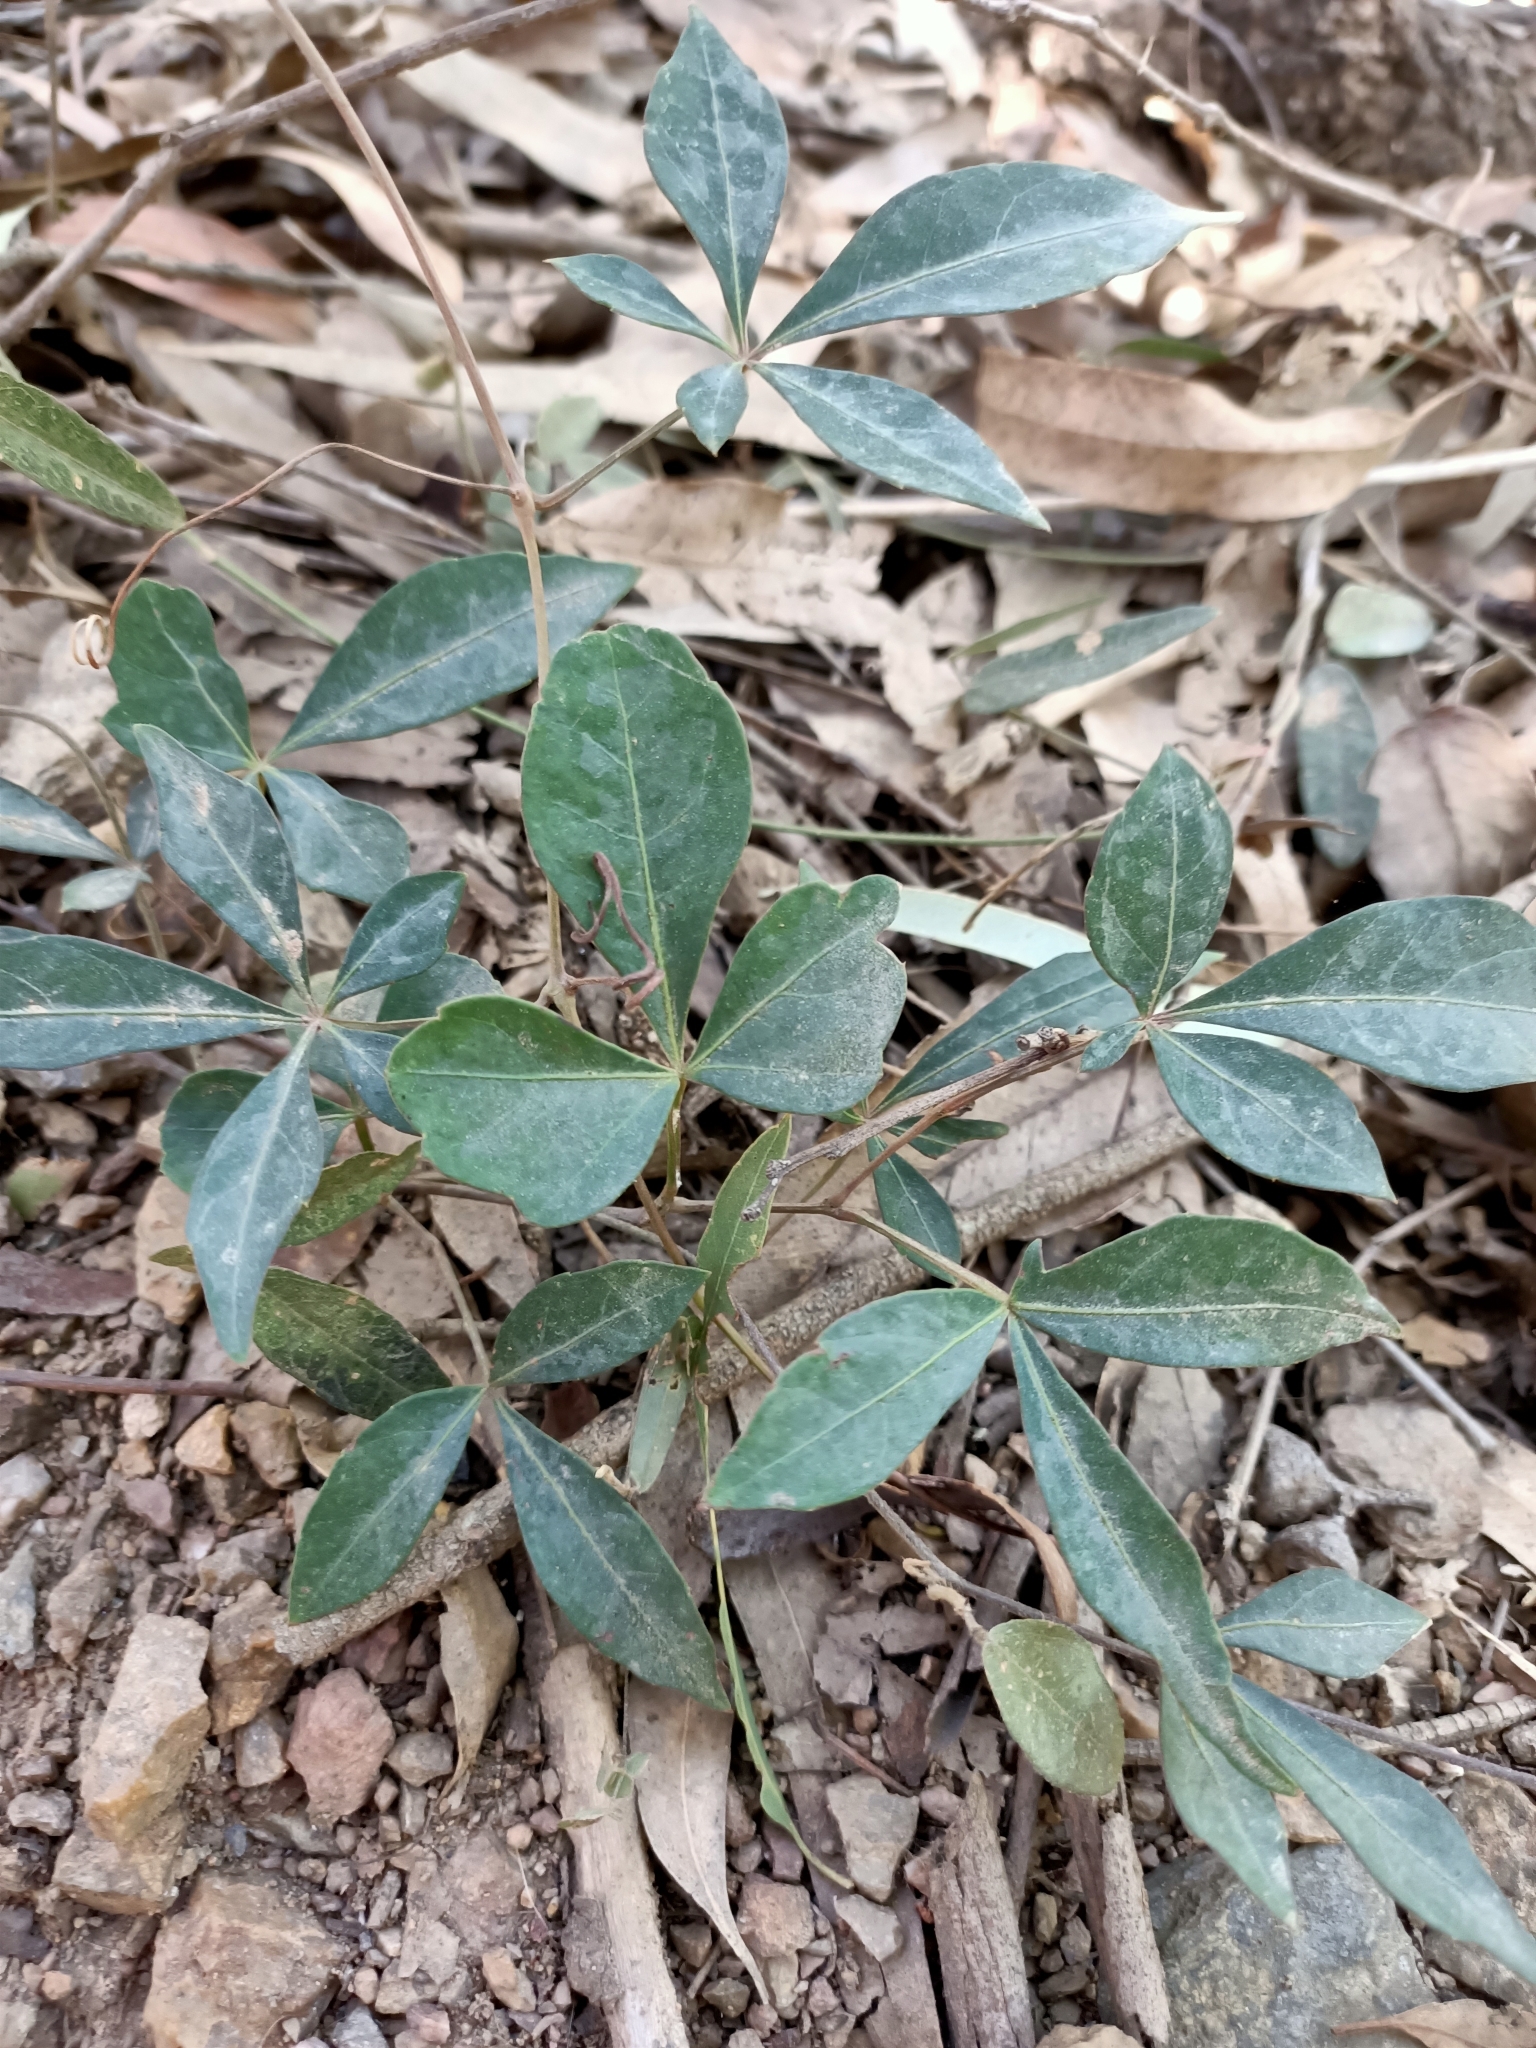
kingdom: Plantae
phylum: Tracheophyta
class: Magnoliopsida
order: Vitales
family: Vitaceae
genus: Clematicissus
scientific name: Clematicissus opaca
